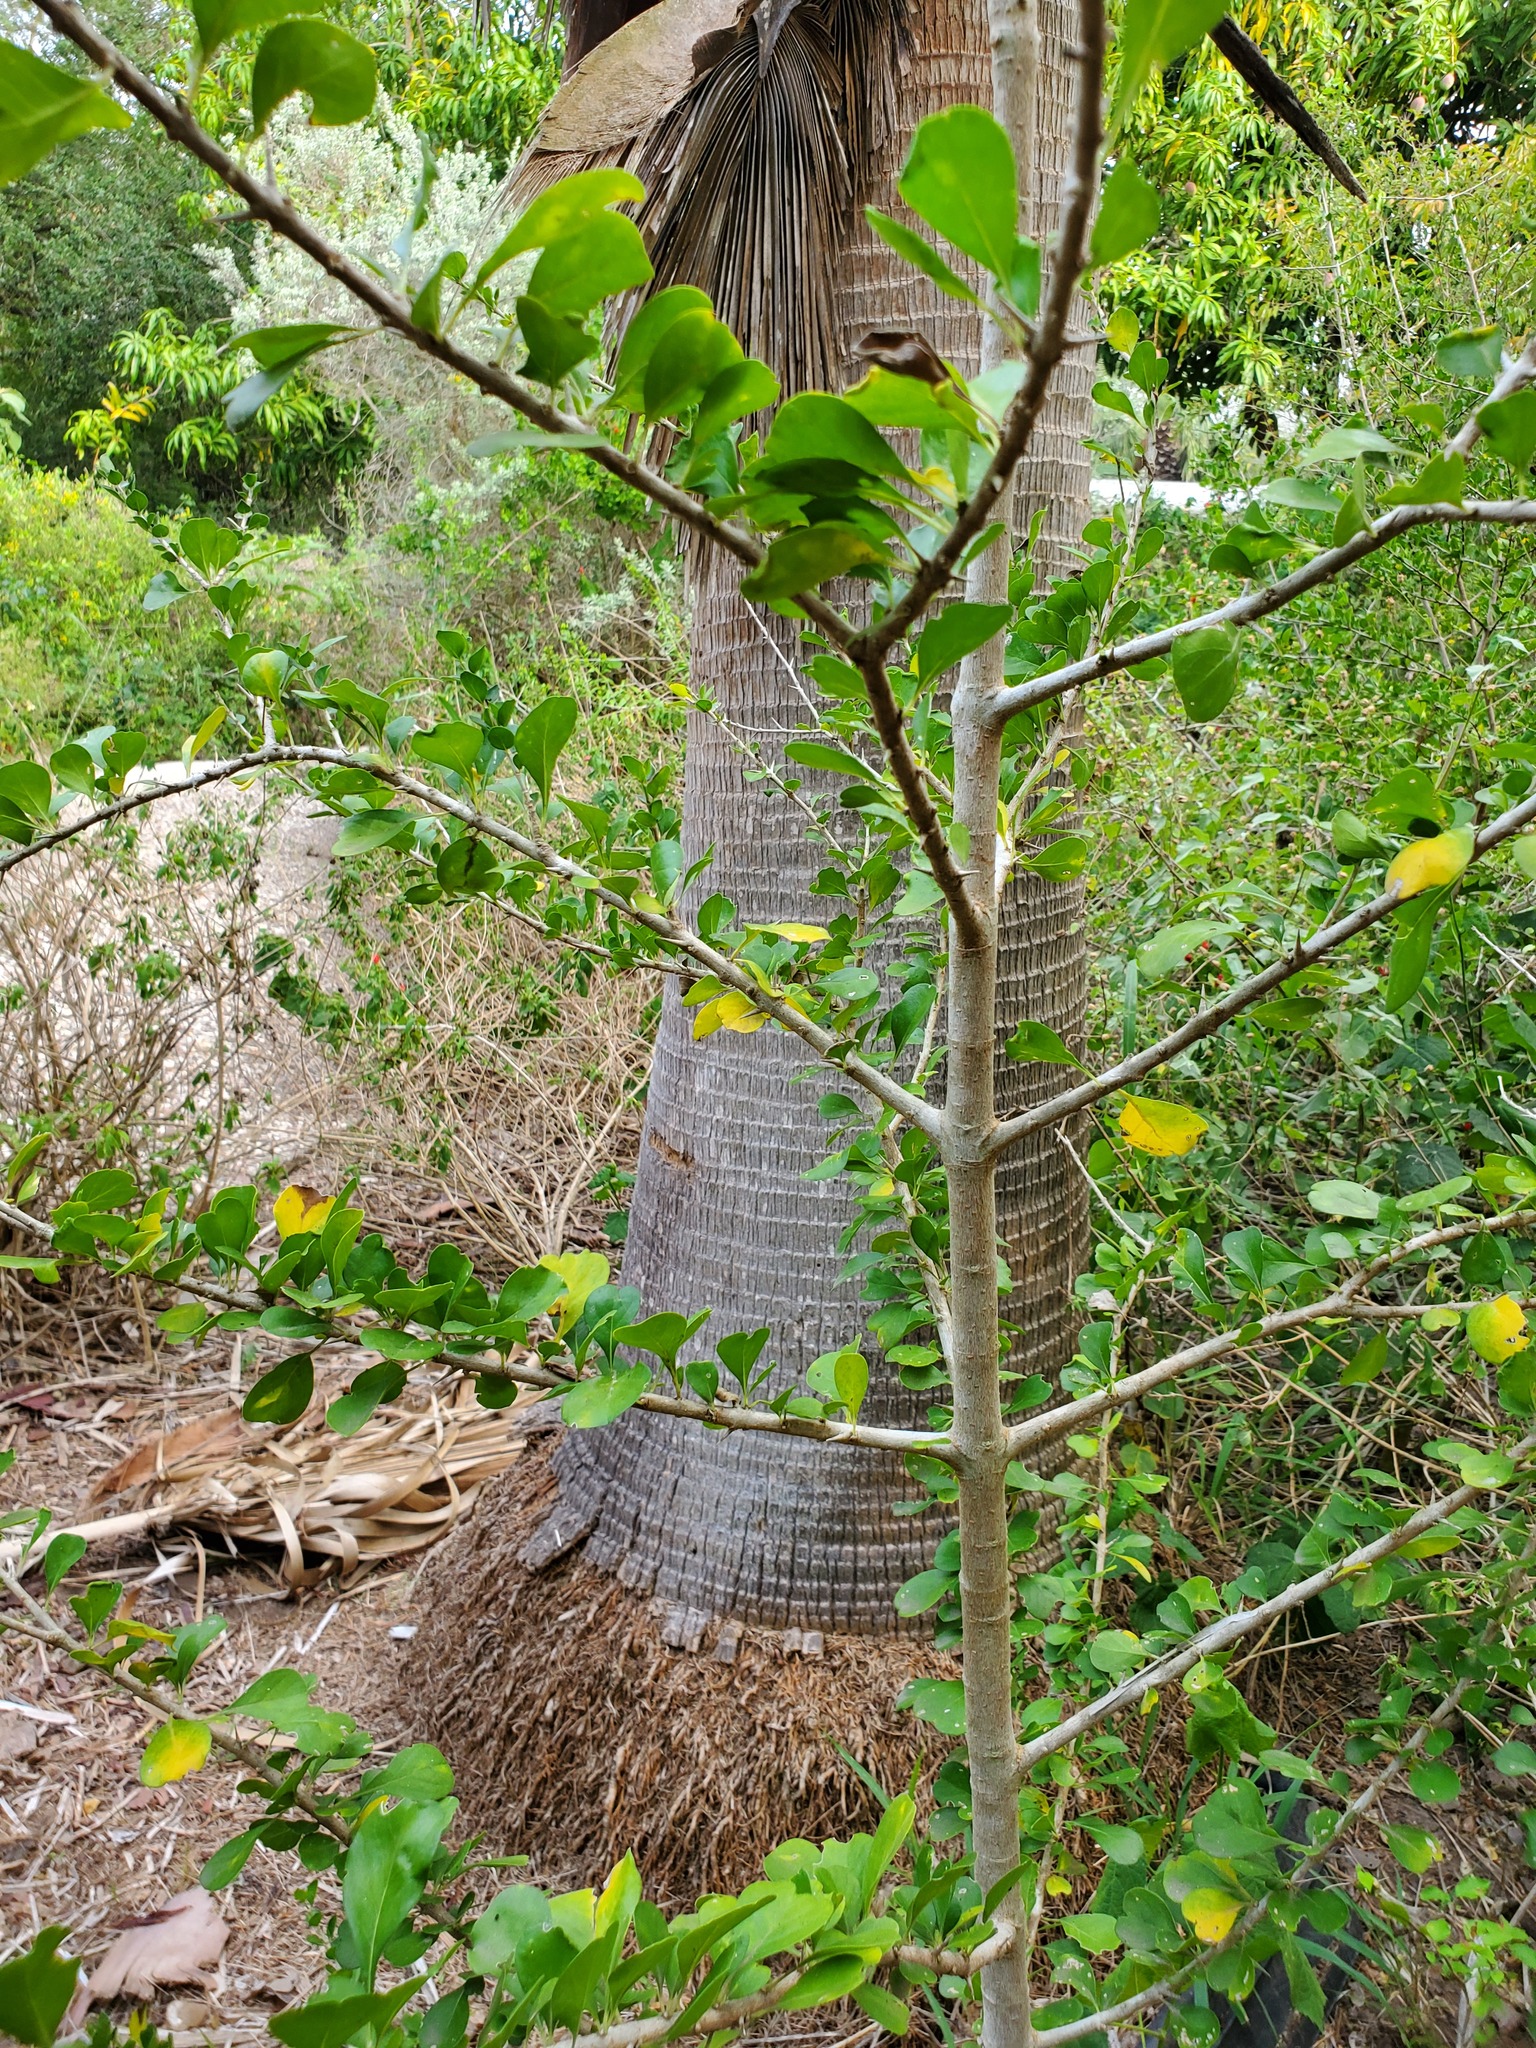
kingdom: Plantae
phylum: Tracheophyta
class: Magnoliopsida
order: Gentianales
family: Rubiaceae
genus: Randia
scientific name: Randia obcordata
